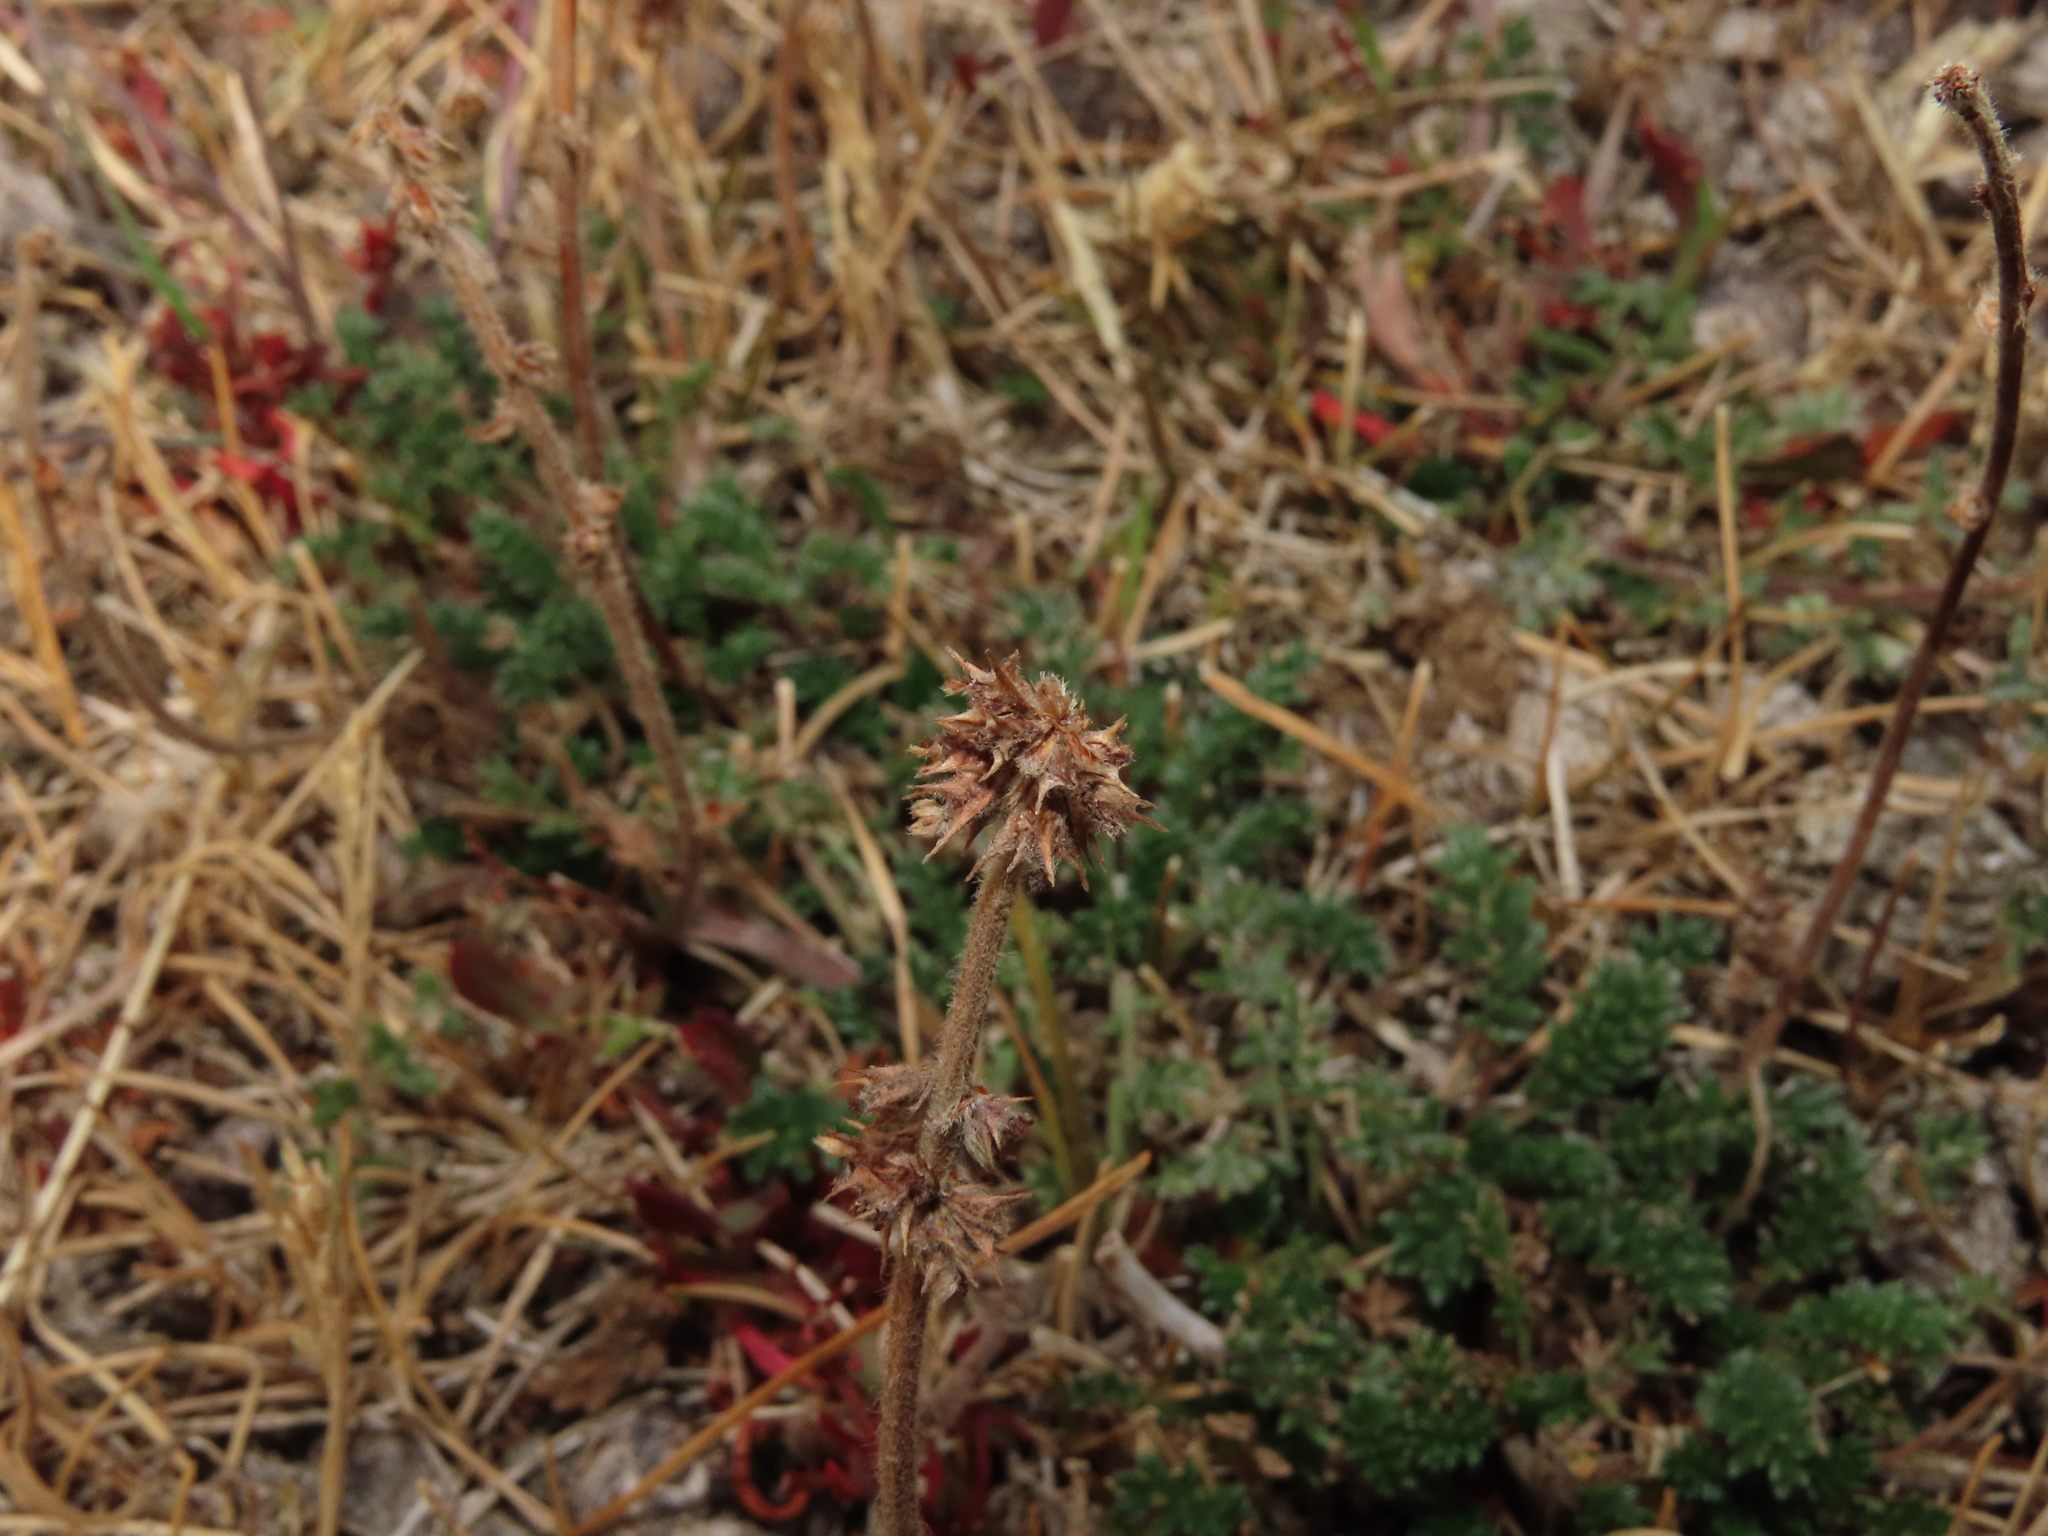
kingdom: Plantae
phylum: Tracheophyta
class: Magnoliopsida
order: Rosales
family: Rosaceae
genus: Acaena
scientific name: Acaena patagonica
